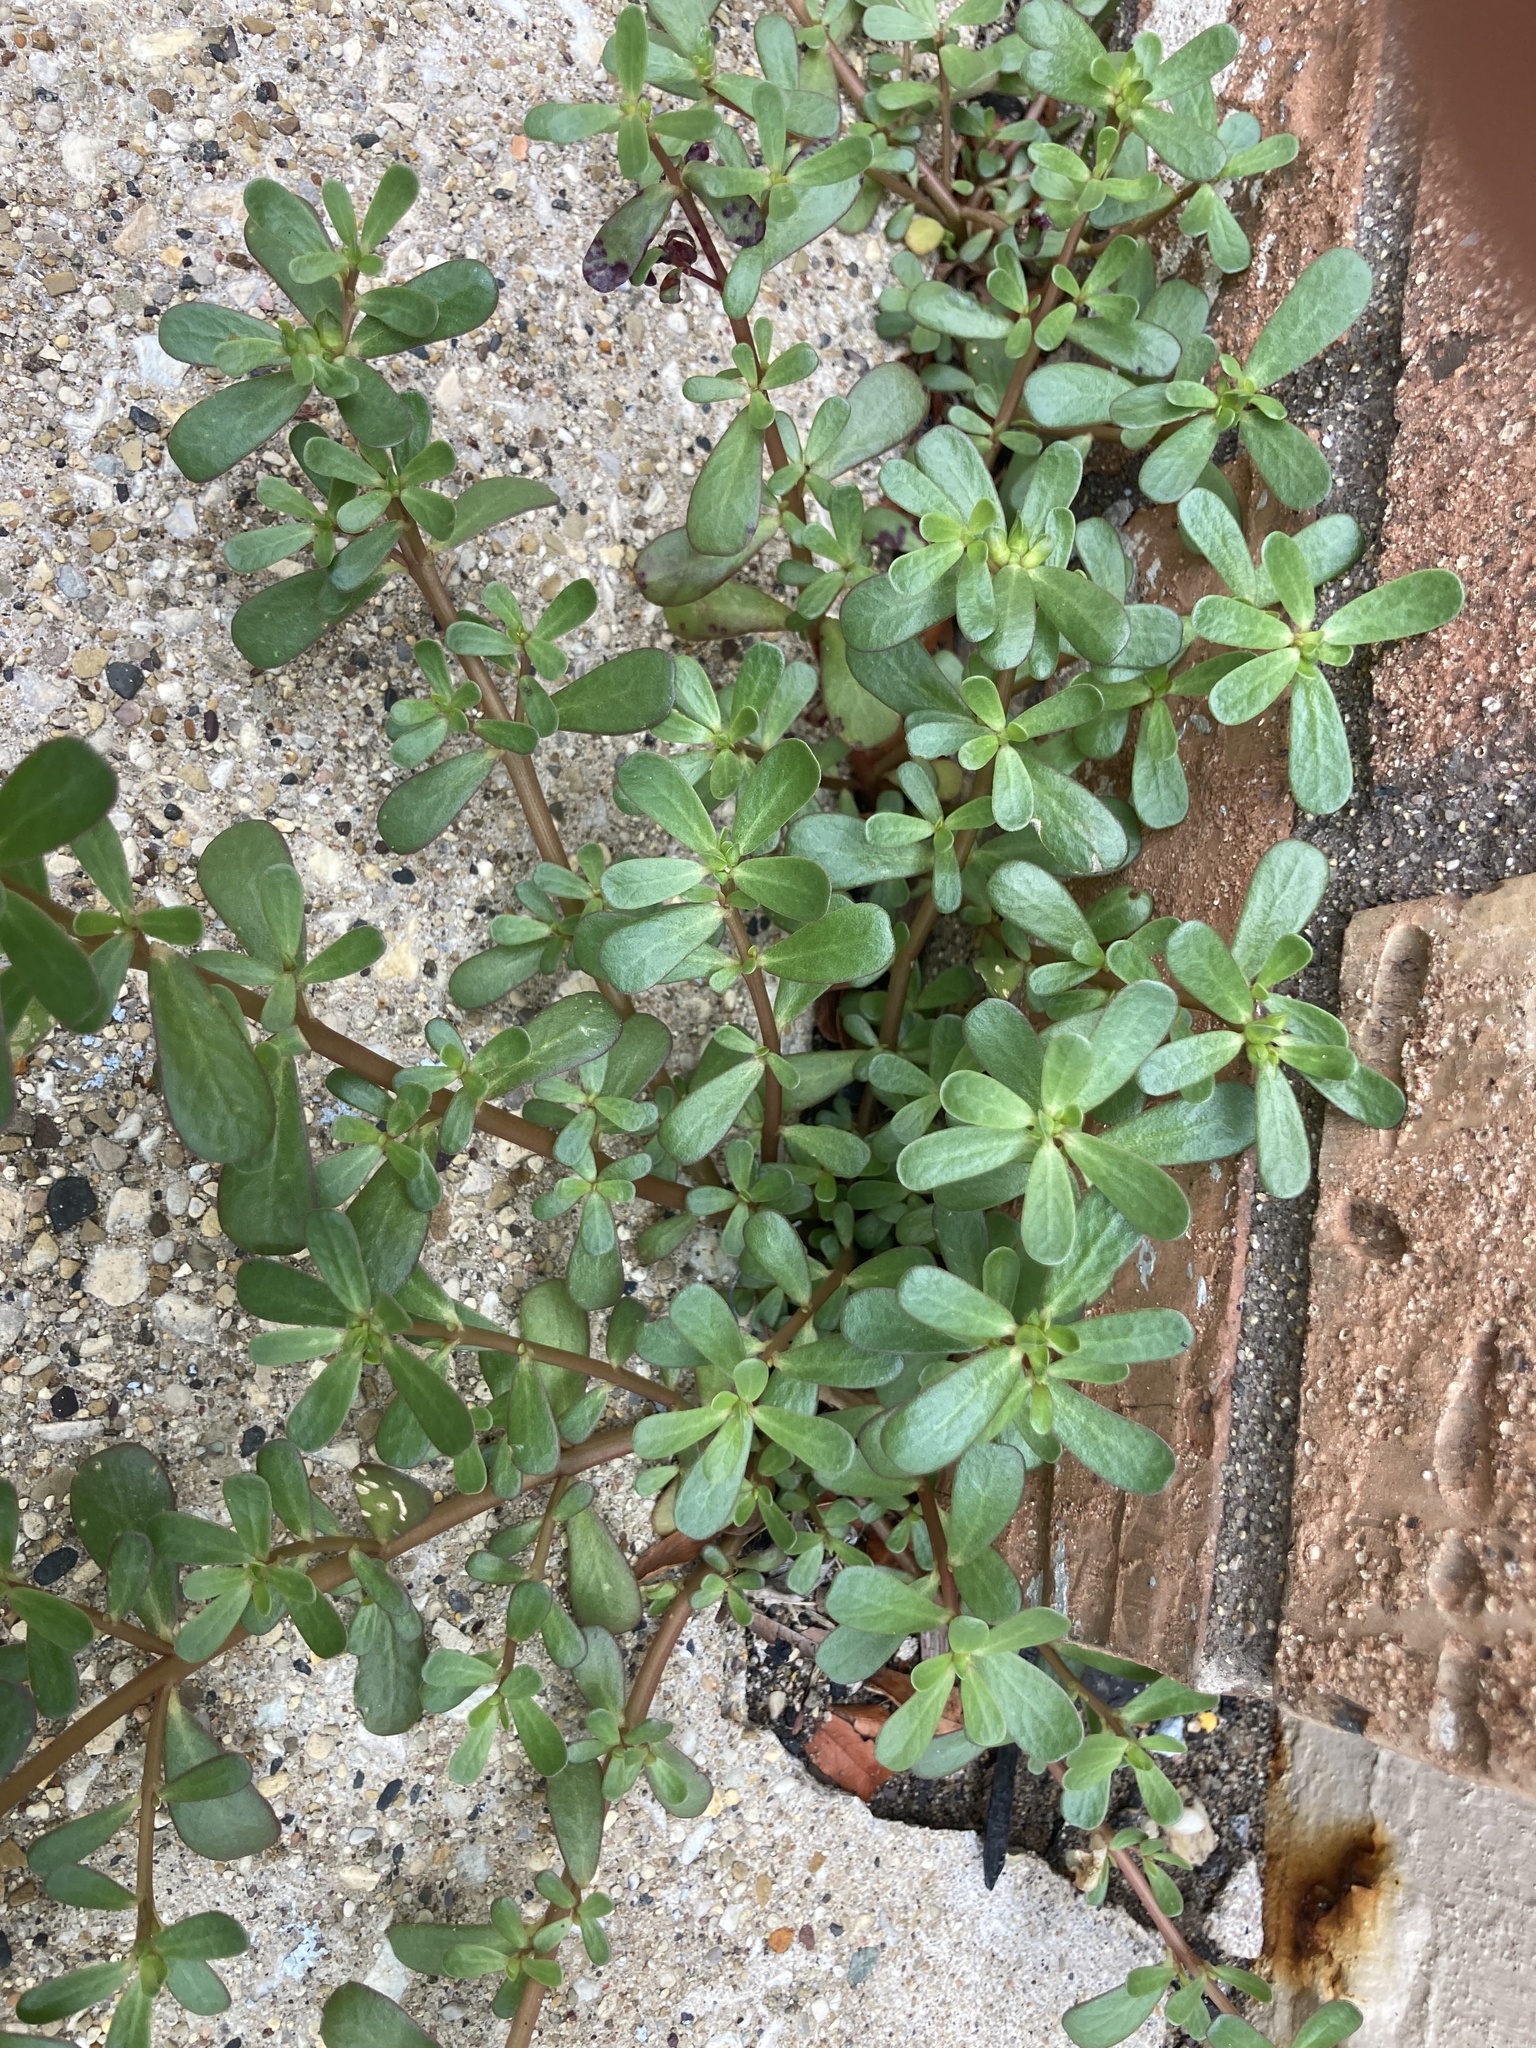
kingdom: Plantae
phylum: Tracheophyta
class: Magnoliopsida
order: Caryophyllales
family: Portulacaceae
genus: Portulaca
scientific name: Portulaca oleracea
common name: Common purslane
